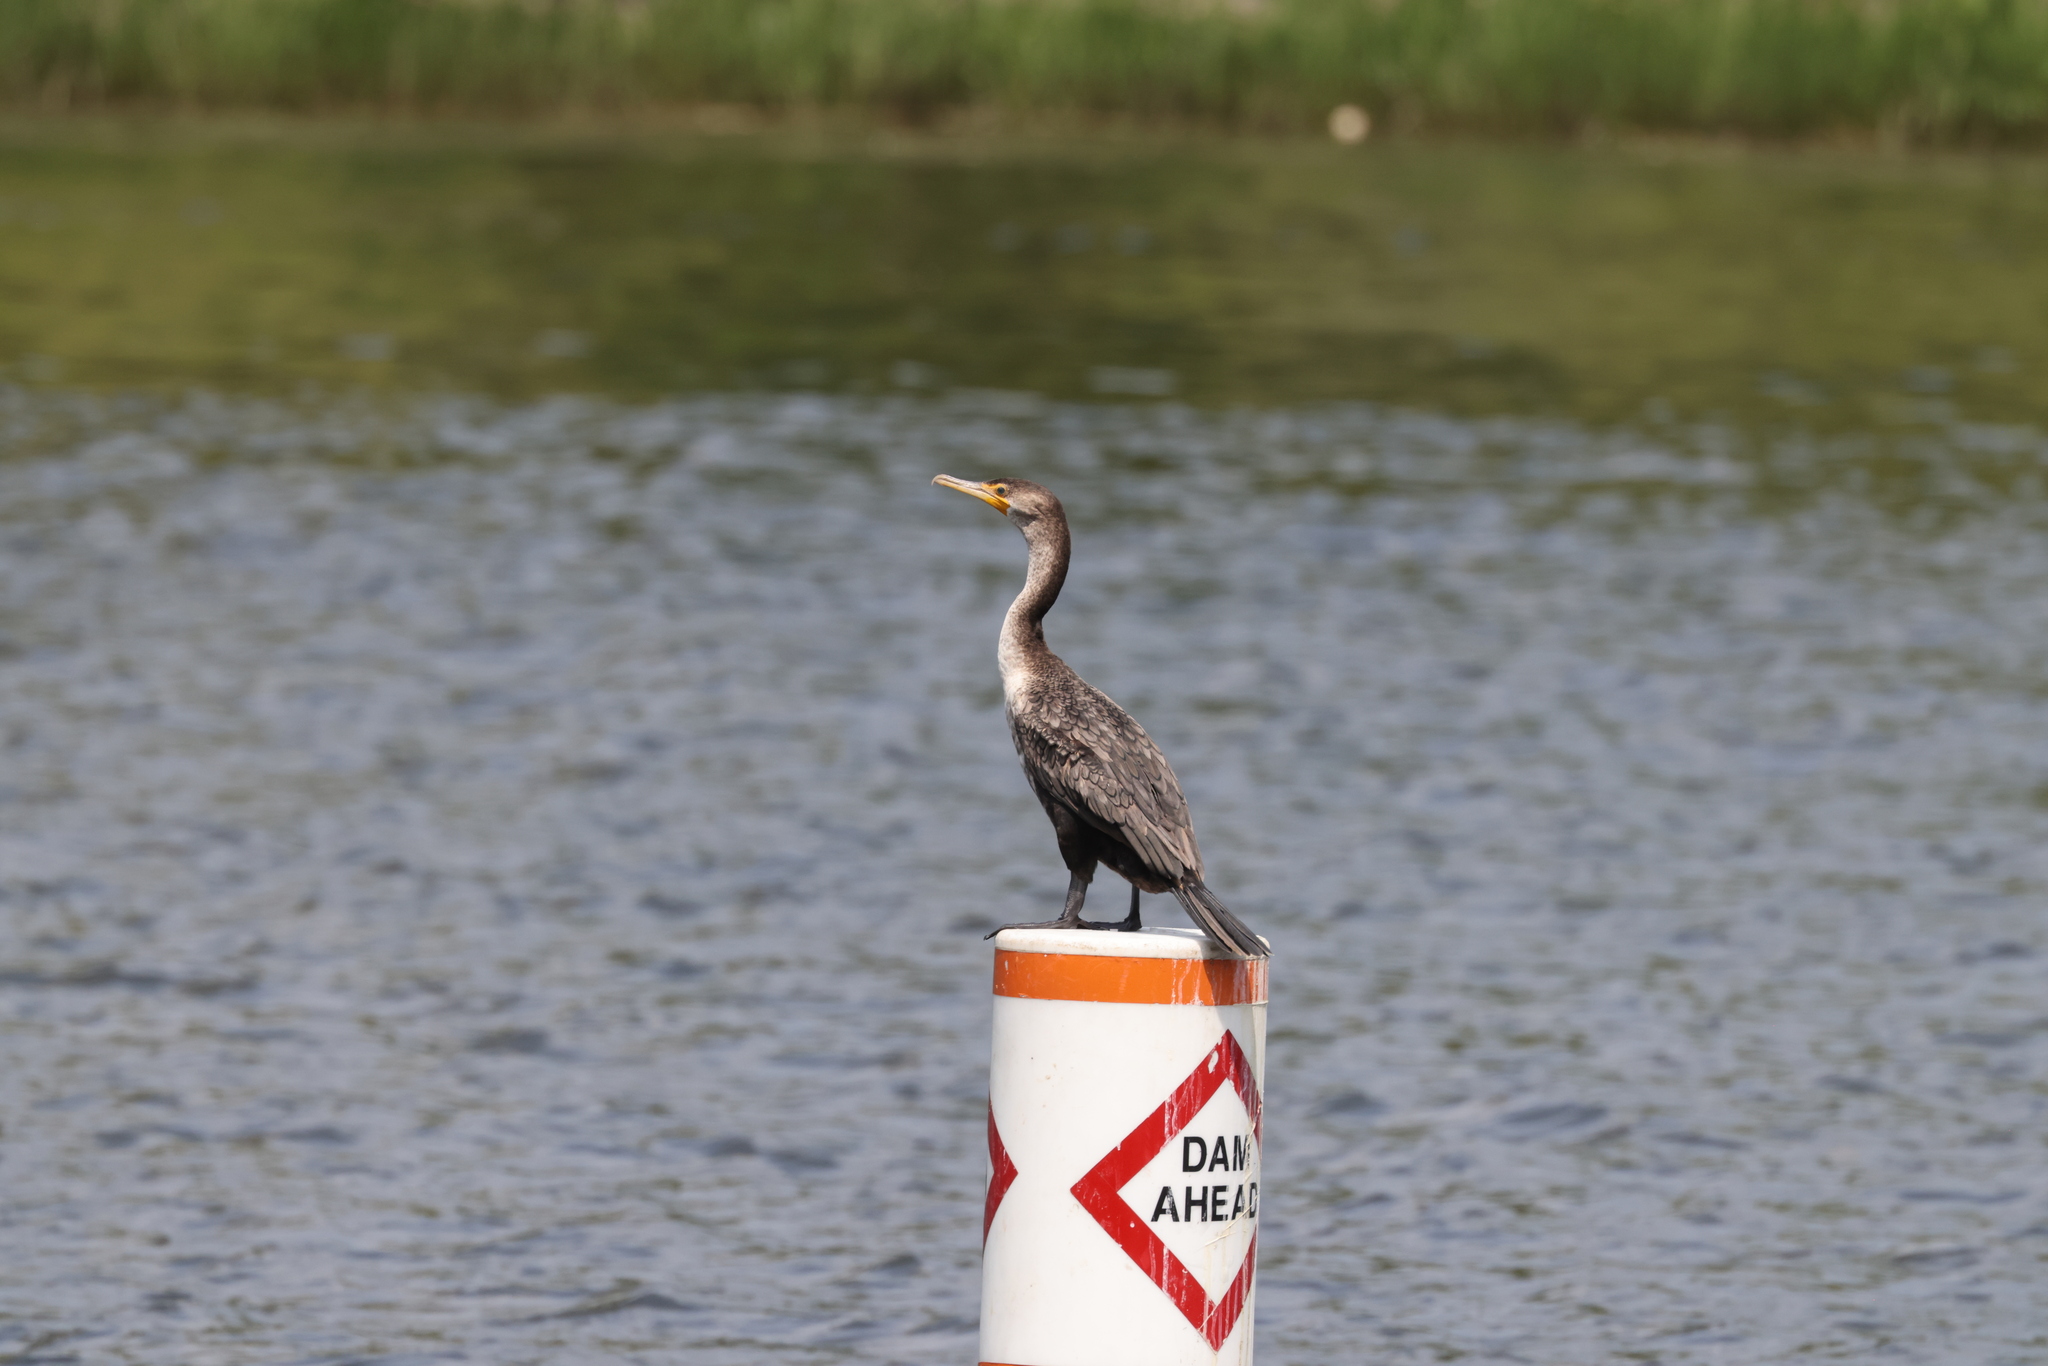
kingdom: Animalia
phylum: Chordata
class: Aves
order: Suliformes
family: Phalacrocoracidae
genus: Phalacrocorax
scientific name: Phalacrocorax auritus
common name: Double-crested cormorant
